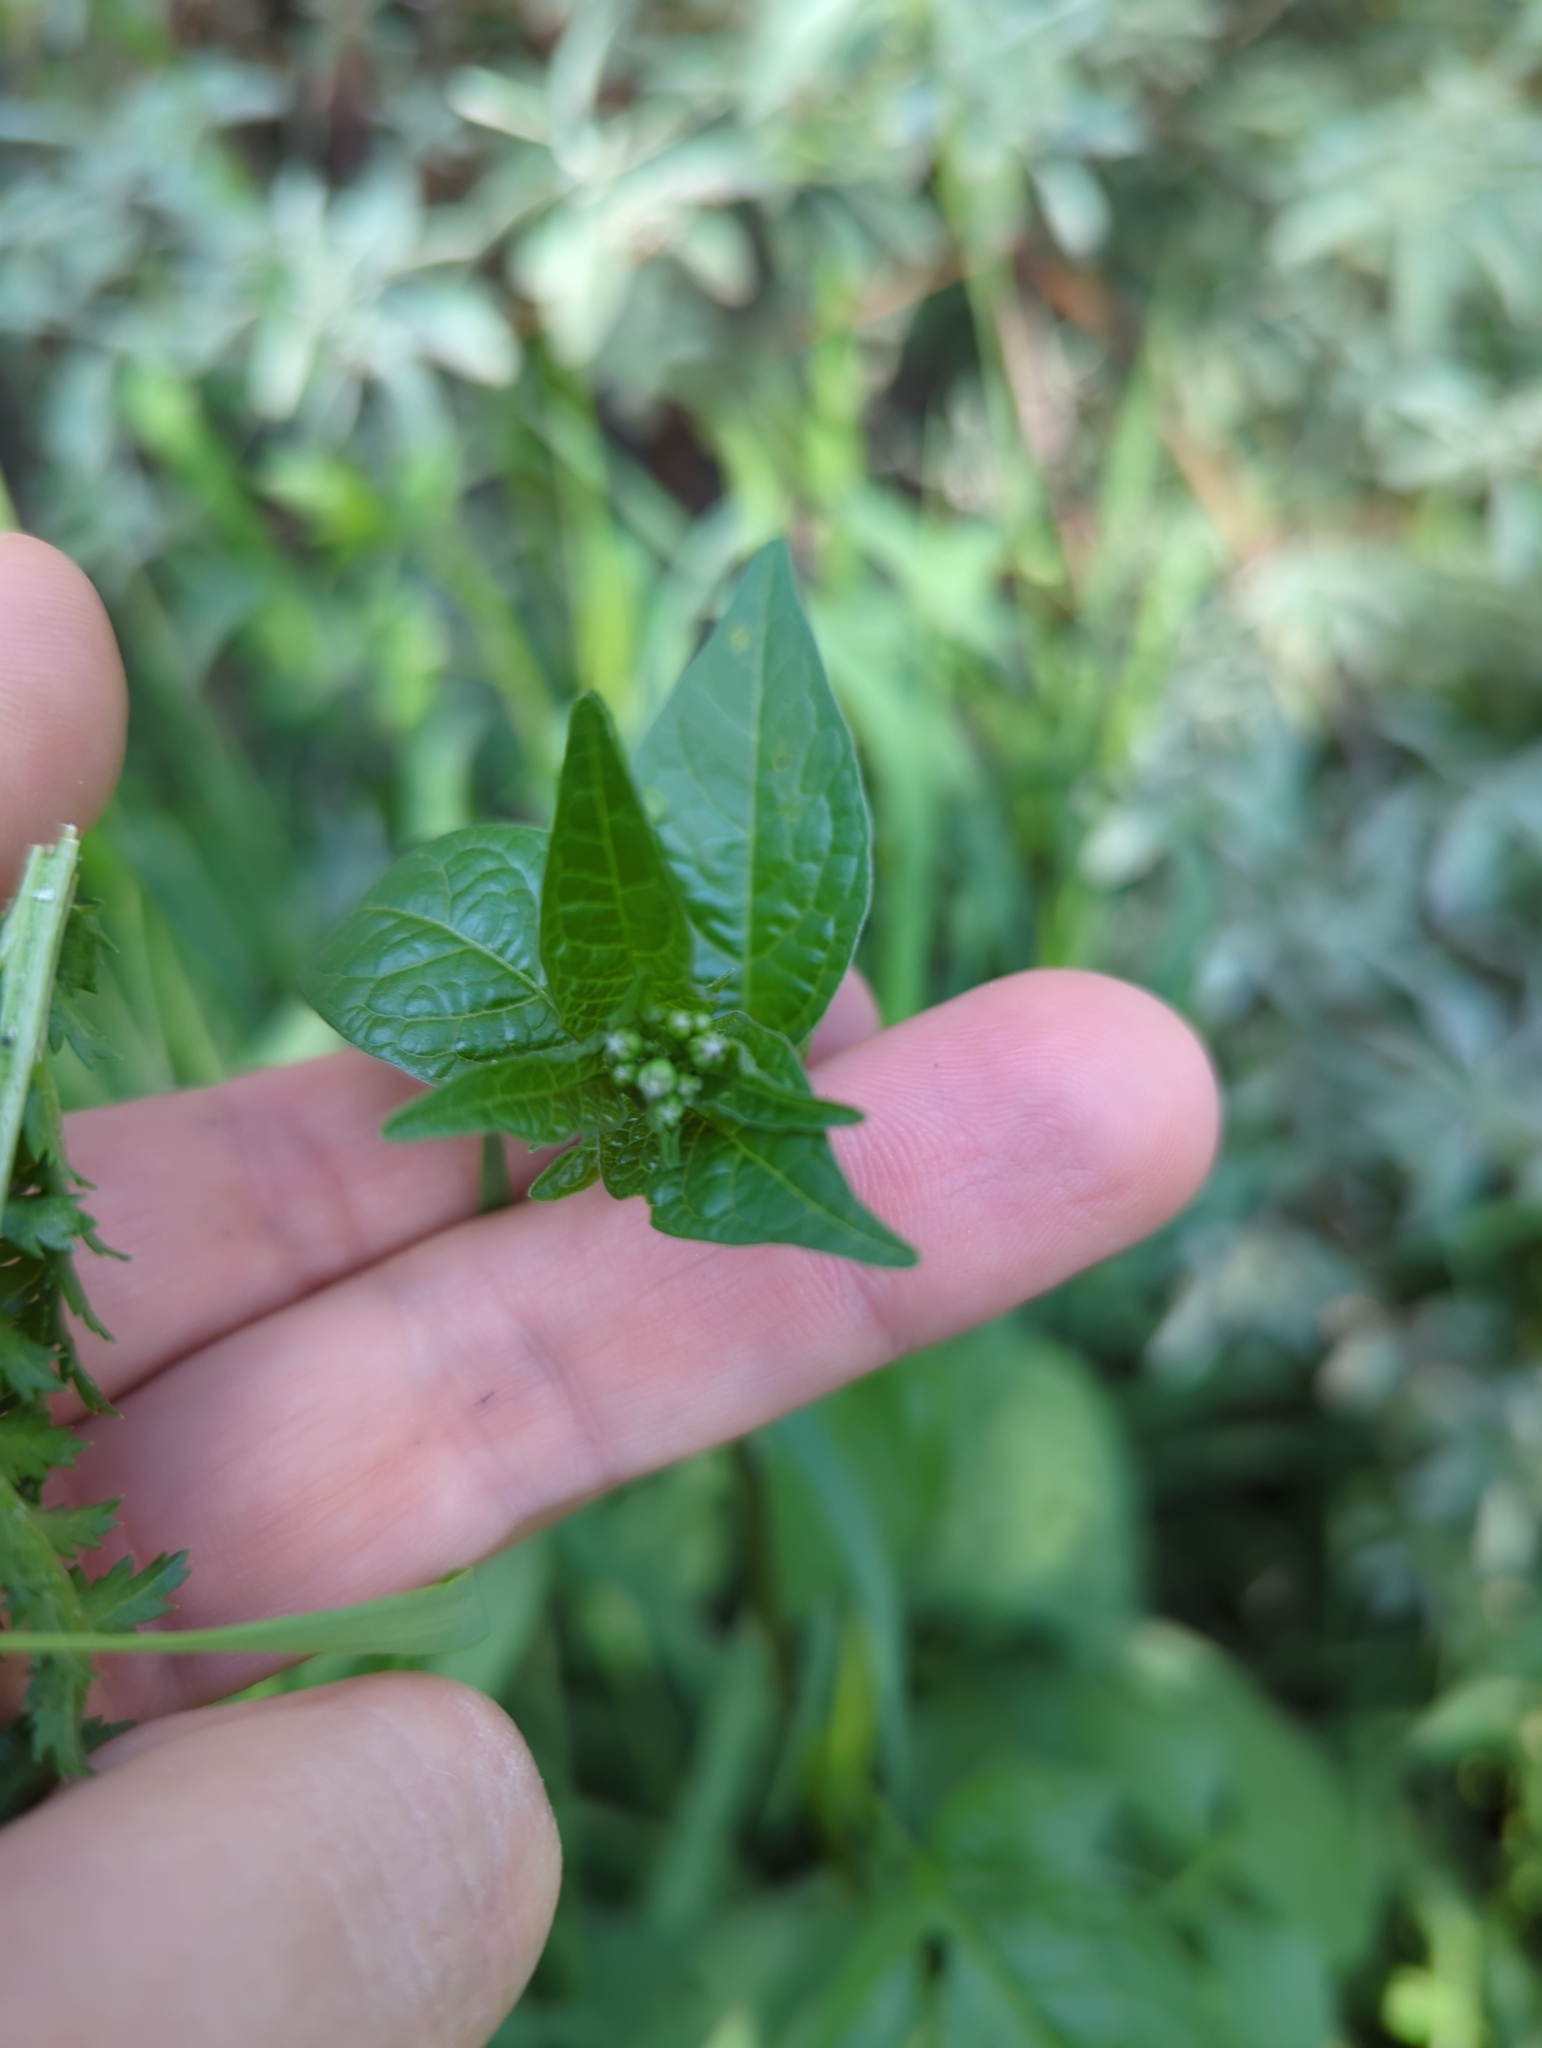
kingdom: Plantae
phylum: Tracheophyta
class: Magnoliopsida
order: Solanales
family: Solanaceae
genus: Solanum
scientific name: Solanum dulcamara
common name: Climbing nightshade
